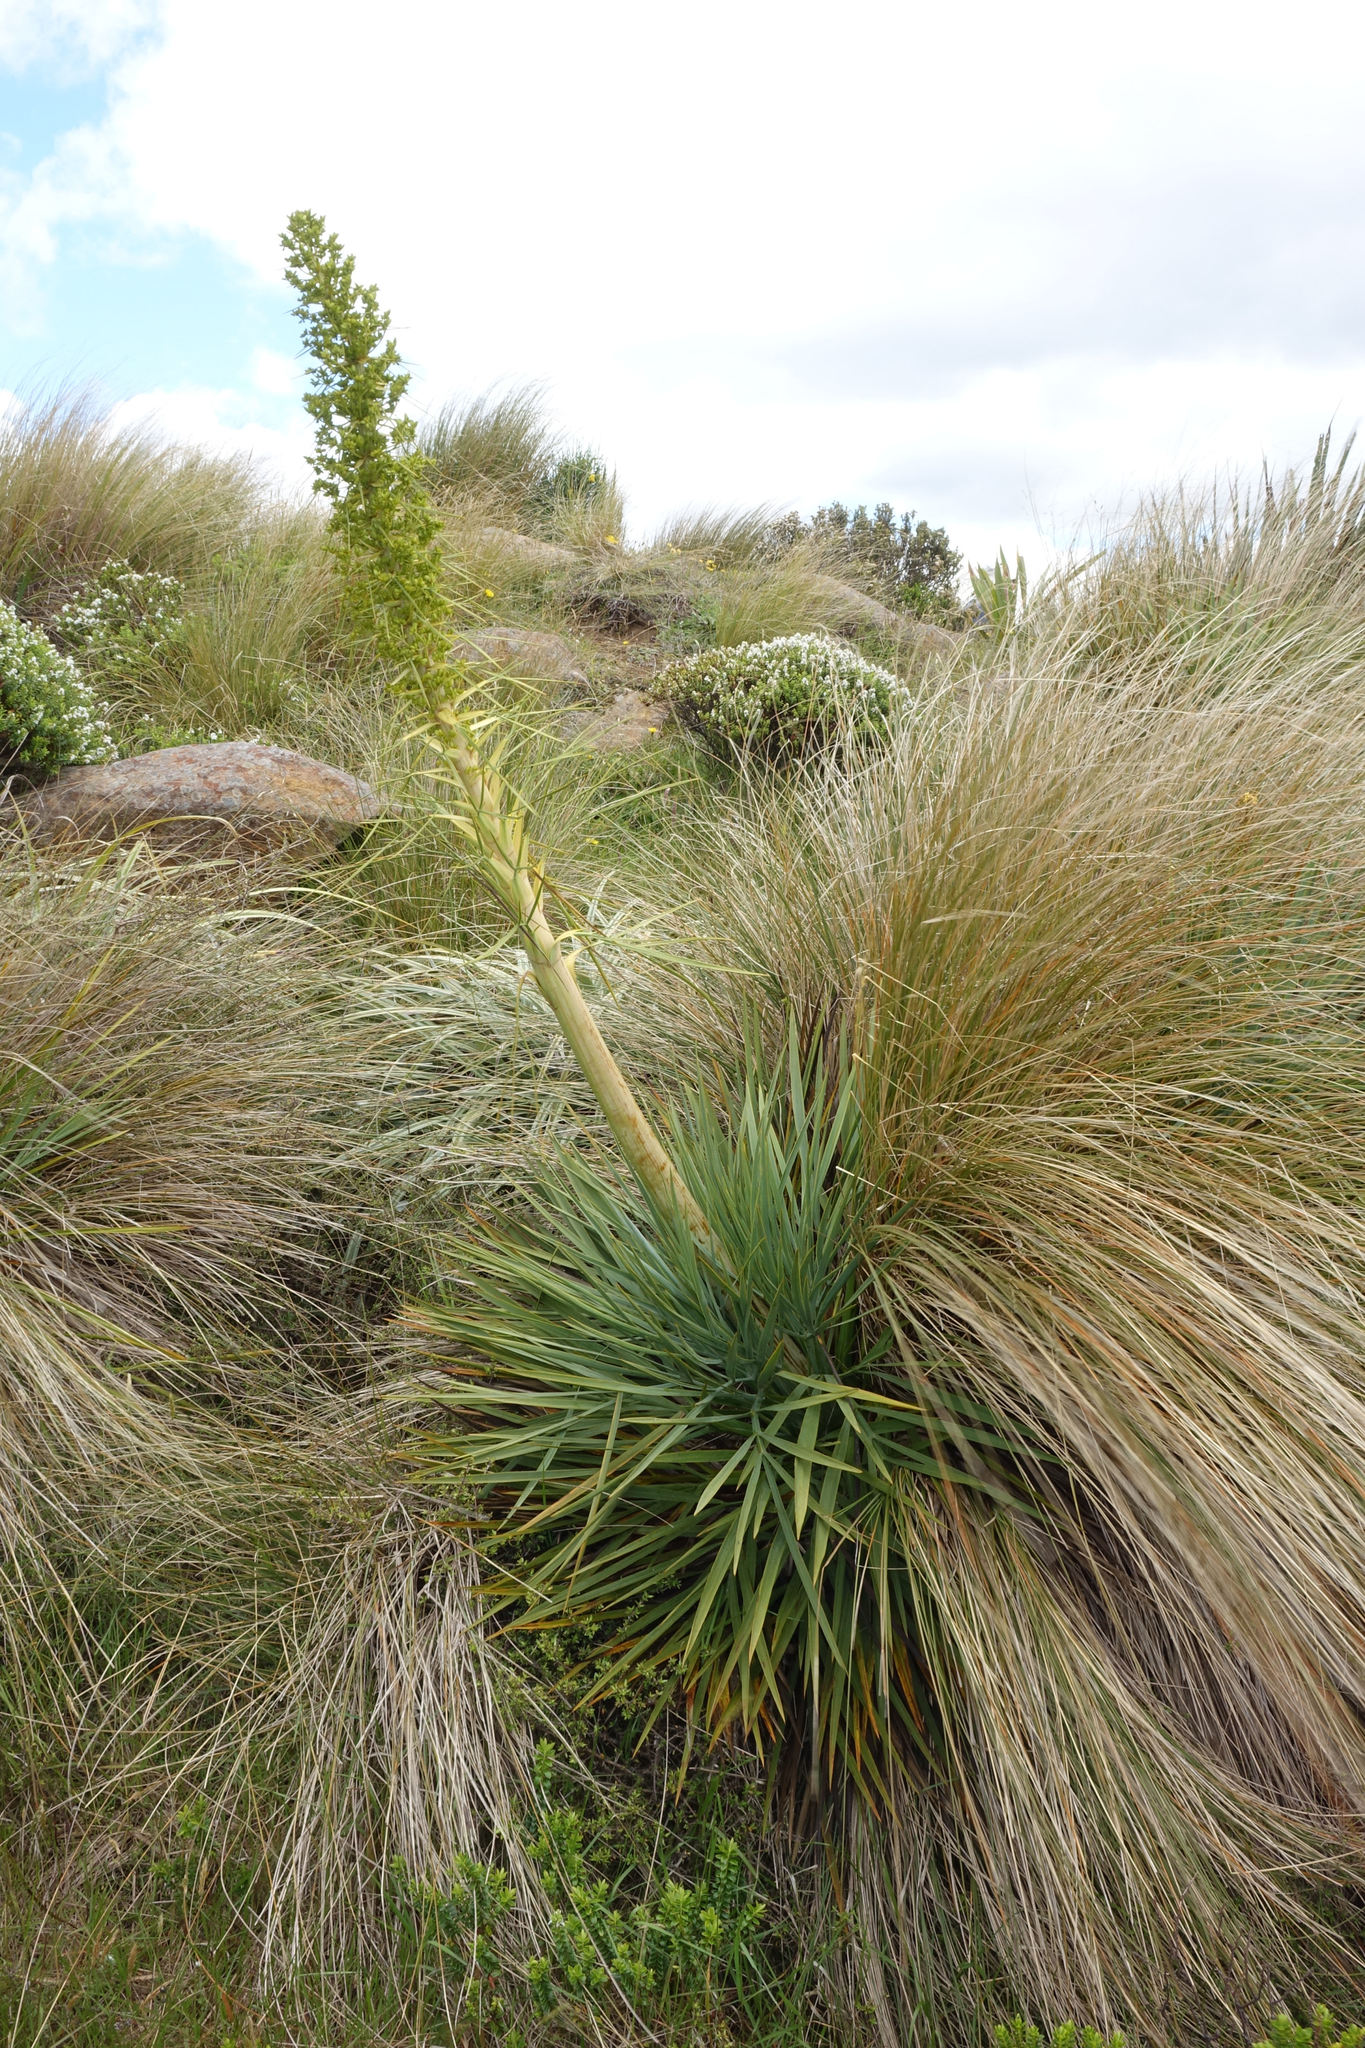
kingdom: Plantae
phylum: Tracheophyta
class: Magnoliopsida
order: Apiales
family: Apiaceae
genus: Aciphylla
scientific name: Aciphylla scott-thomsonii
